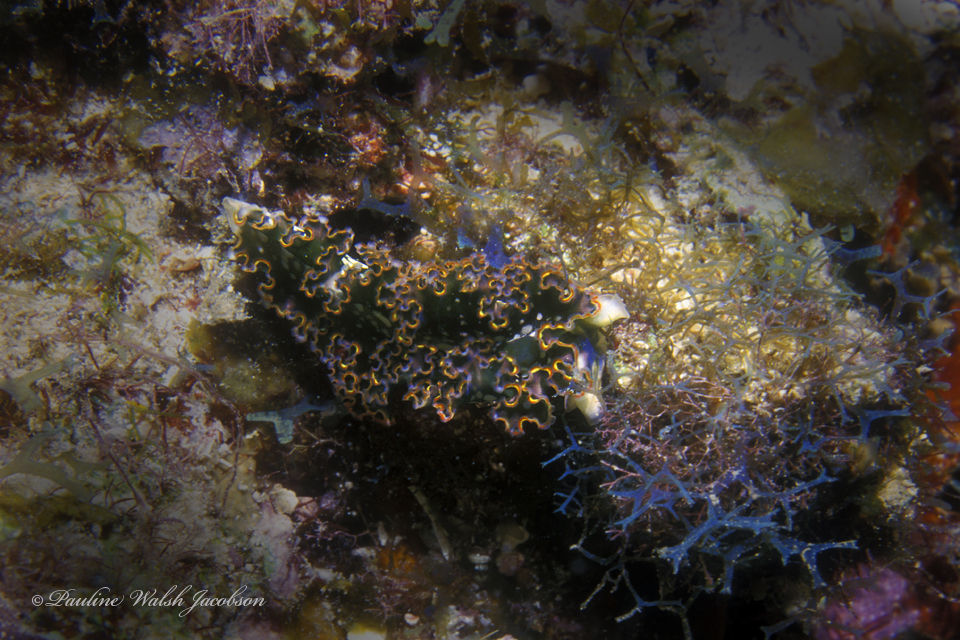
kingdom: Animalia
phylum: Mollusca
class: Gastropoda
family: Plakobranchidae
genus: Elysia
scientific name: Elysia crispata
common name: Lettuce slug
